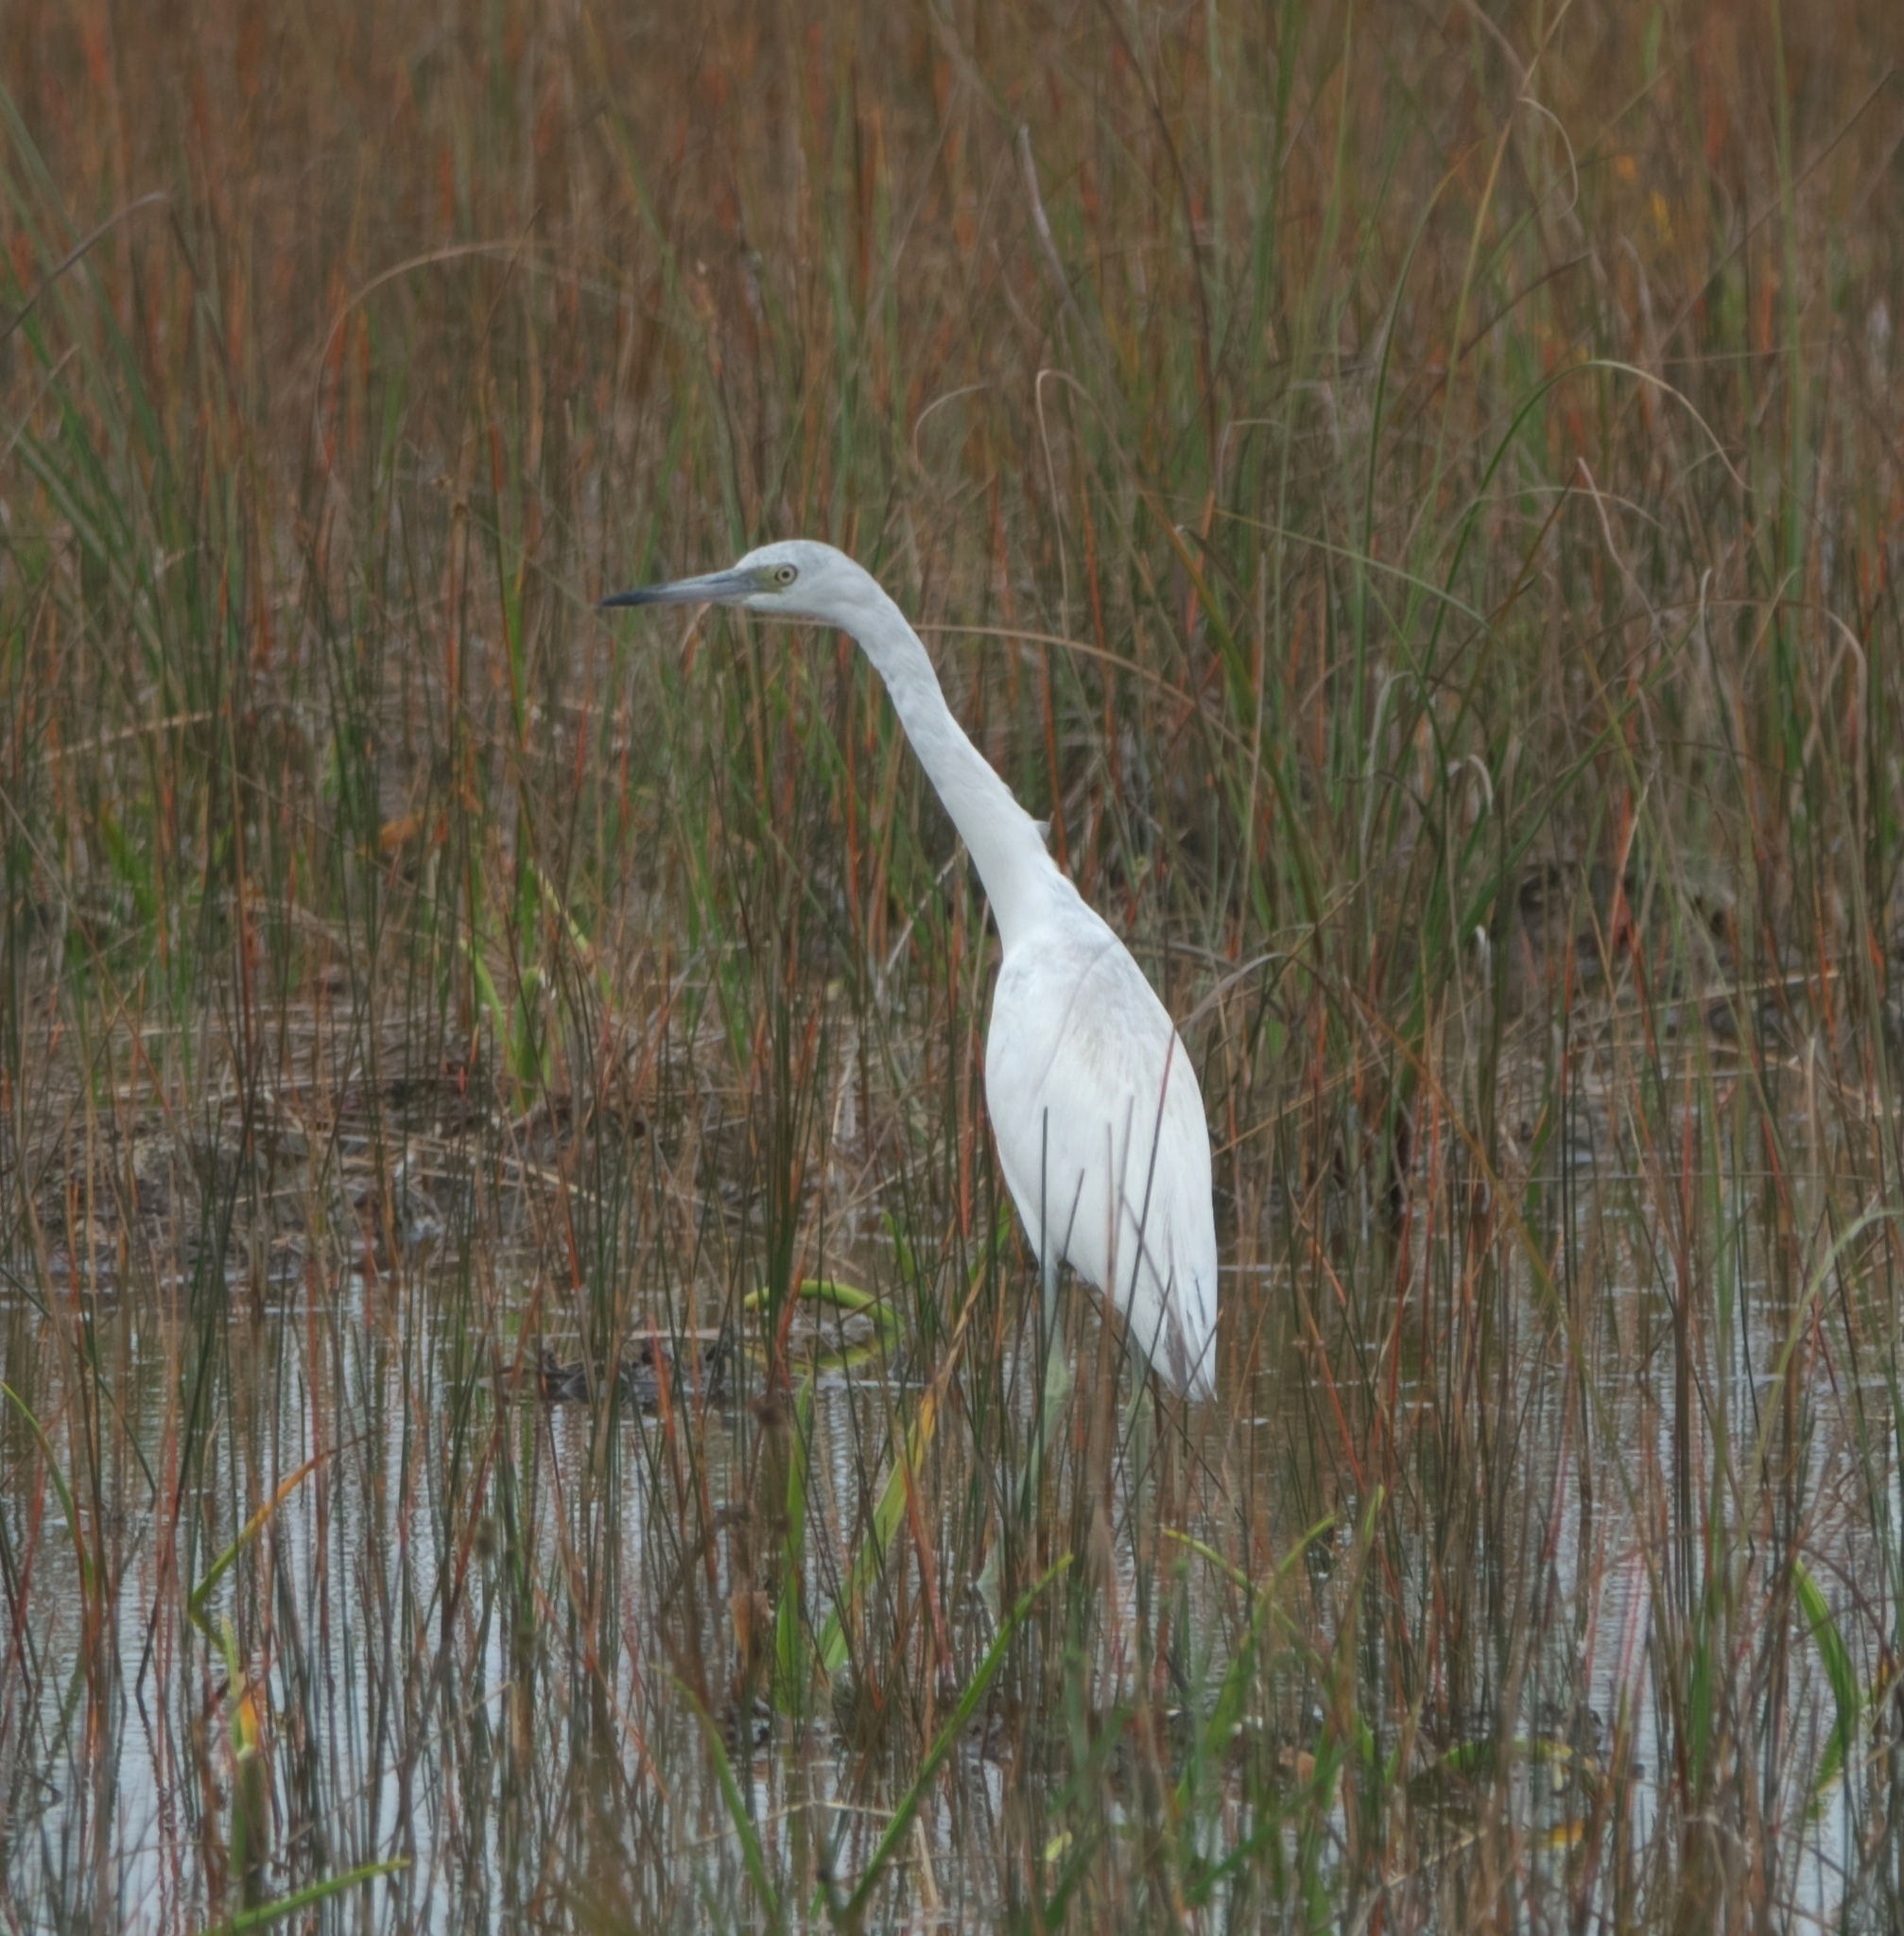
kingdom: Animalia
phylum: Chordata
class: Aves
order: Pelecaniformes
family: Ardeidae
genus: Egretta
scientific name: Egretta caerulea
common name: Little blue heron
